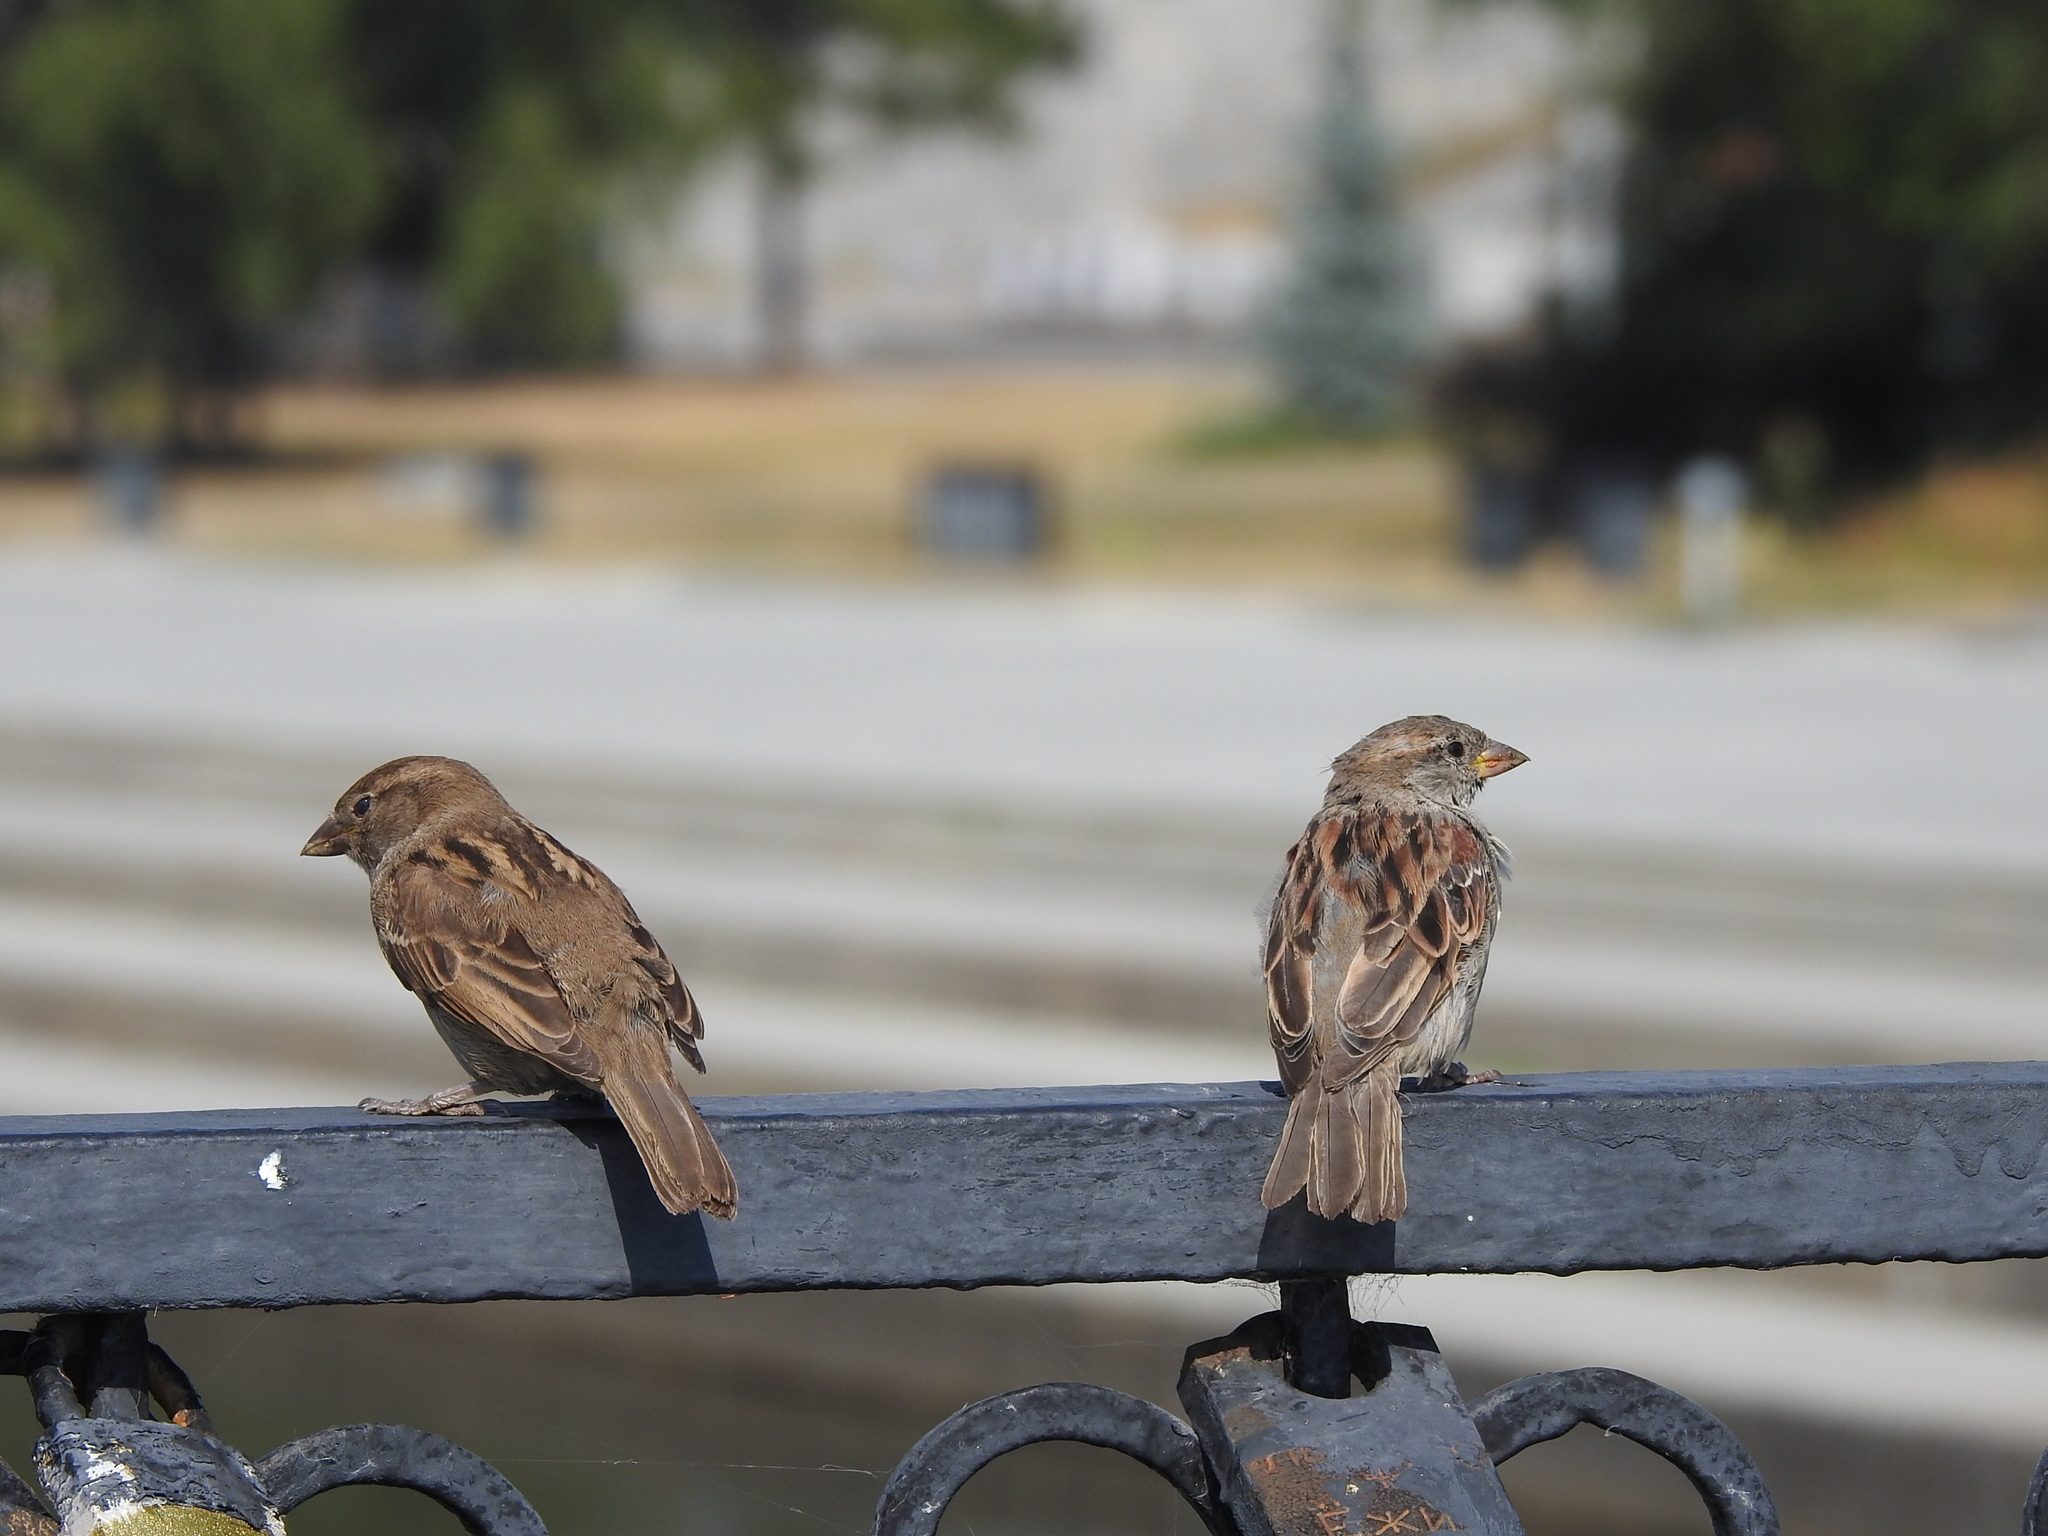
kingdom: Animalia
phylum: Chordata
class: Aves
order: Passeriformes
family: Passeridae
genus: Passer
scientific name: Passer domesticus
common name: House sparrow
